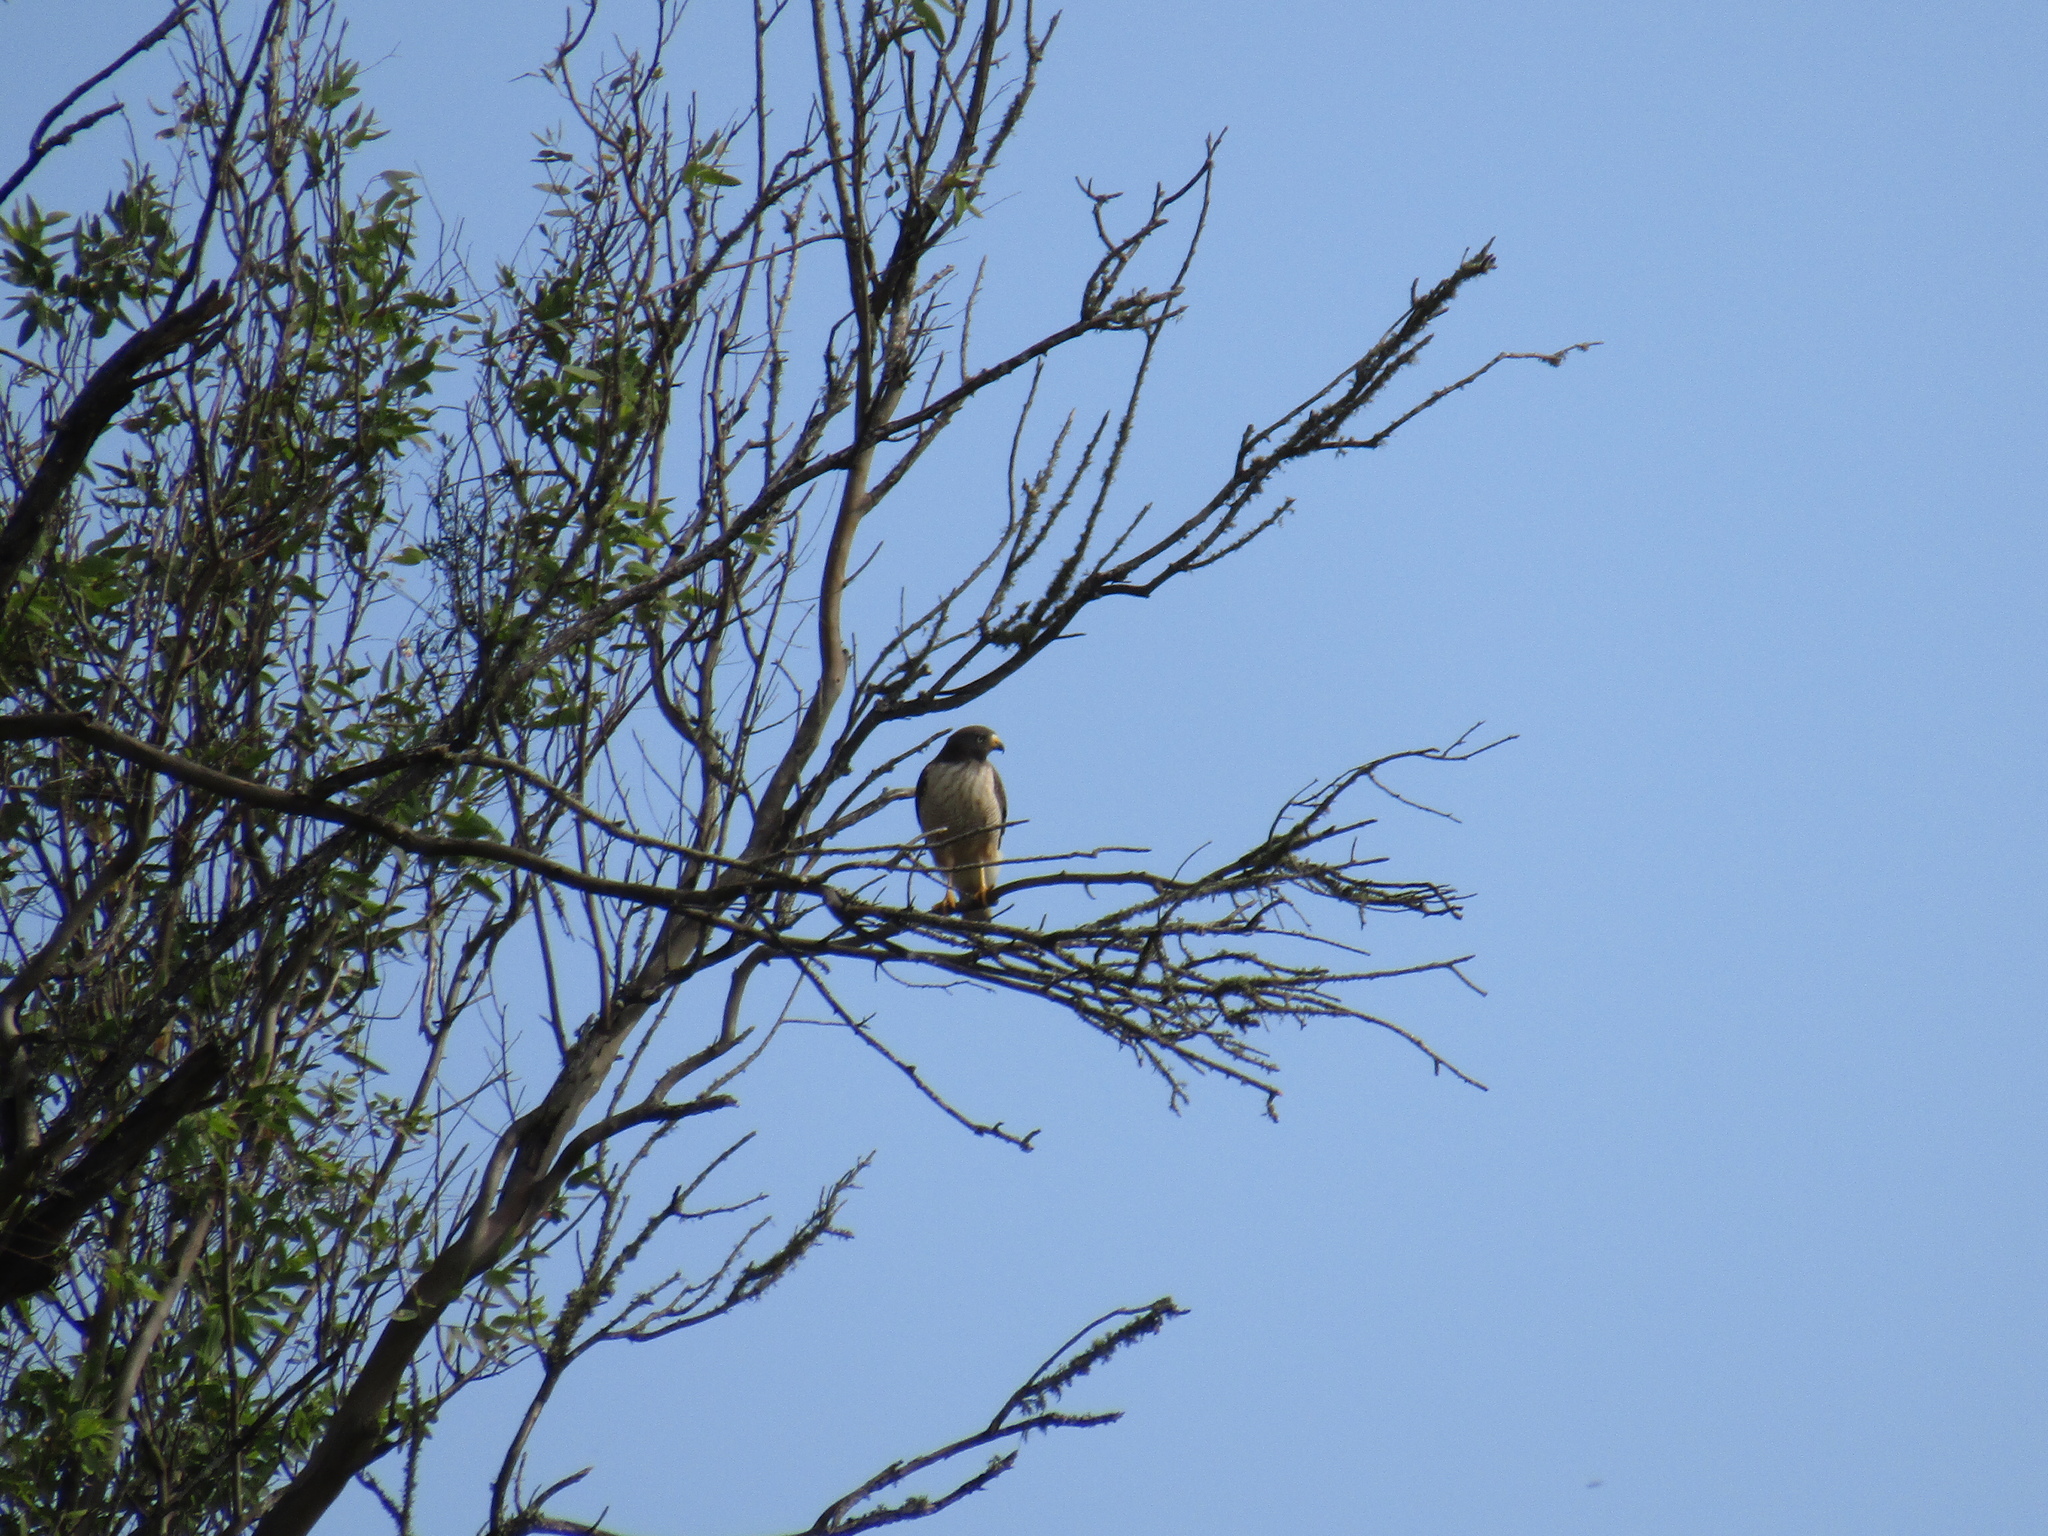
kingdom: Animalia
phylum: Chordata
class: Aves
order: Accipitriformes
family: Accipitridae
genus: Rupornis
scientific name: Rupornis magnirostris
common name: Roadside hawk
